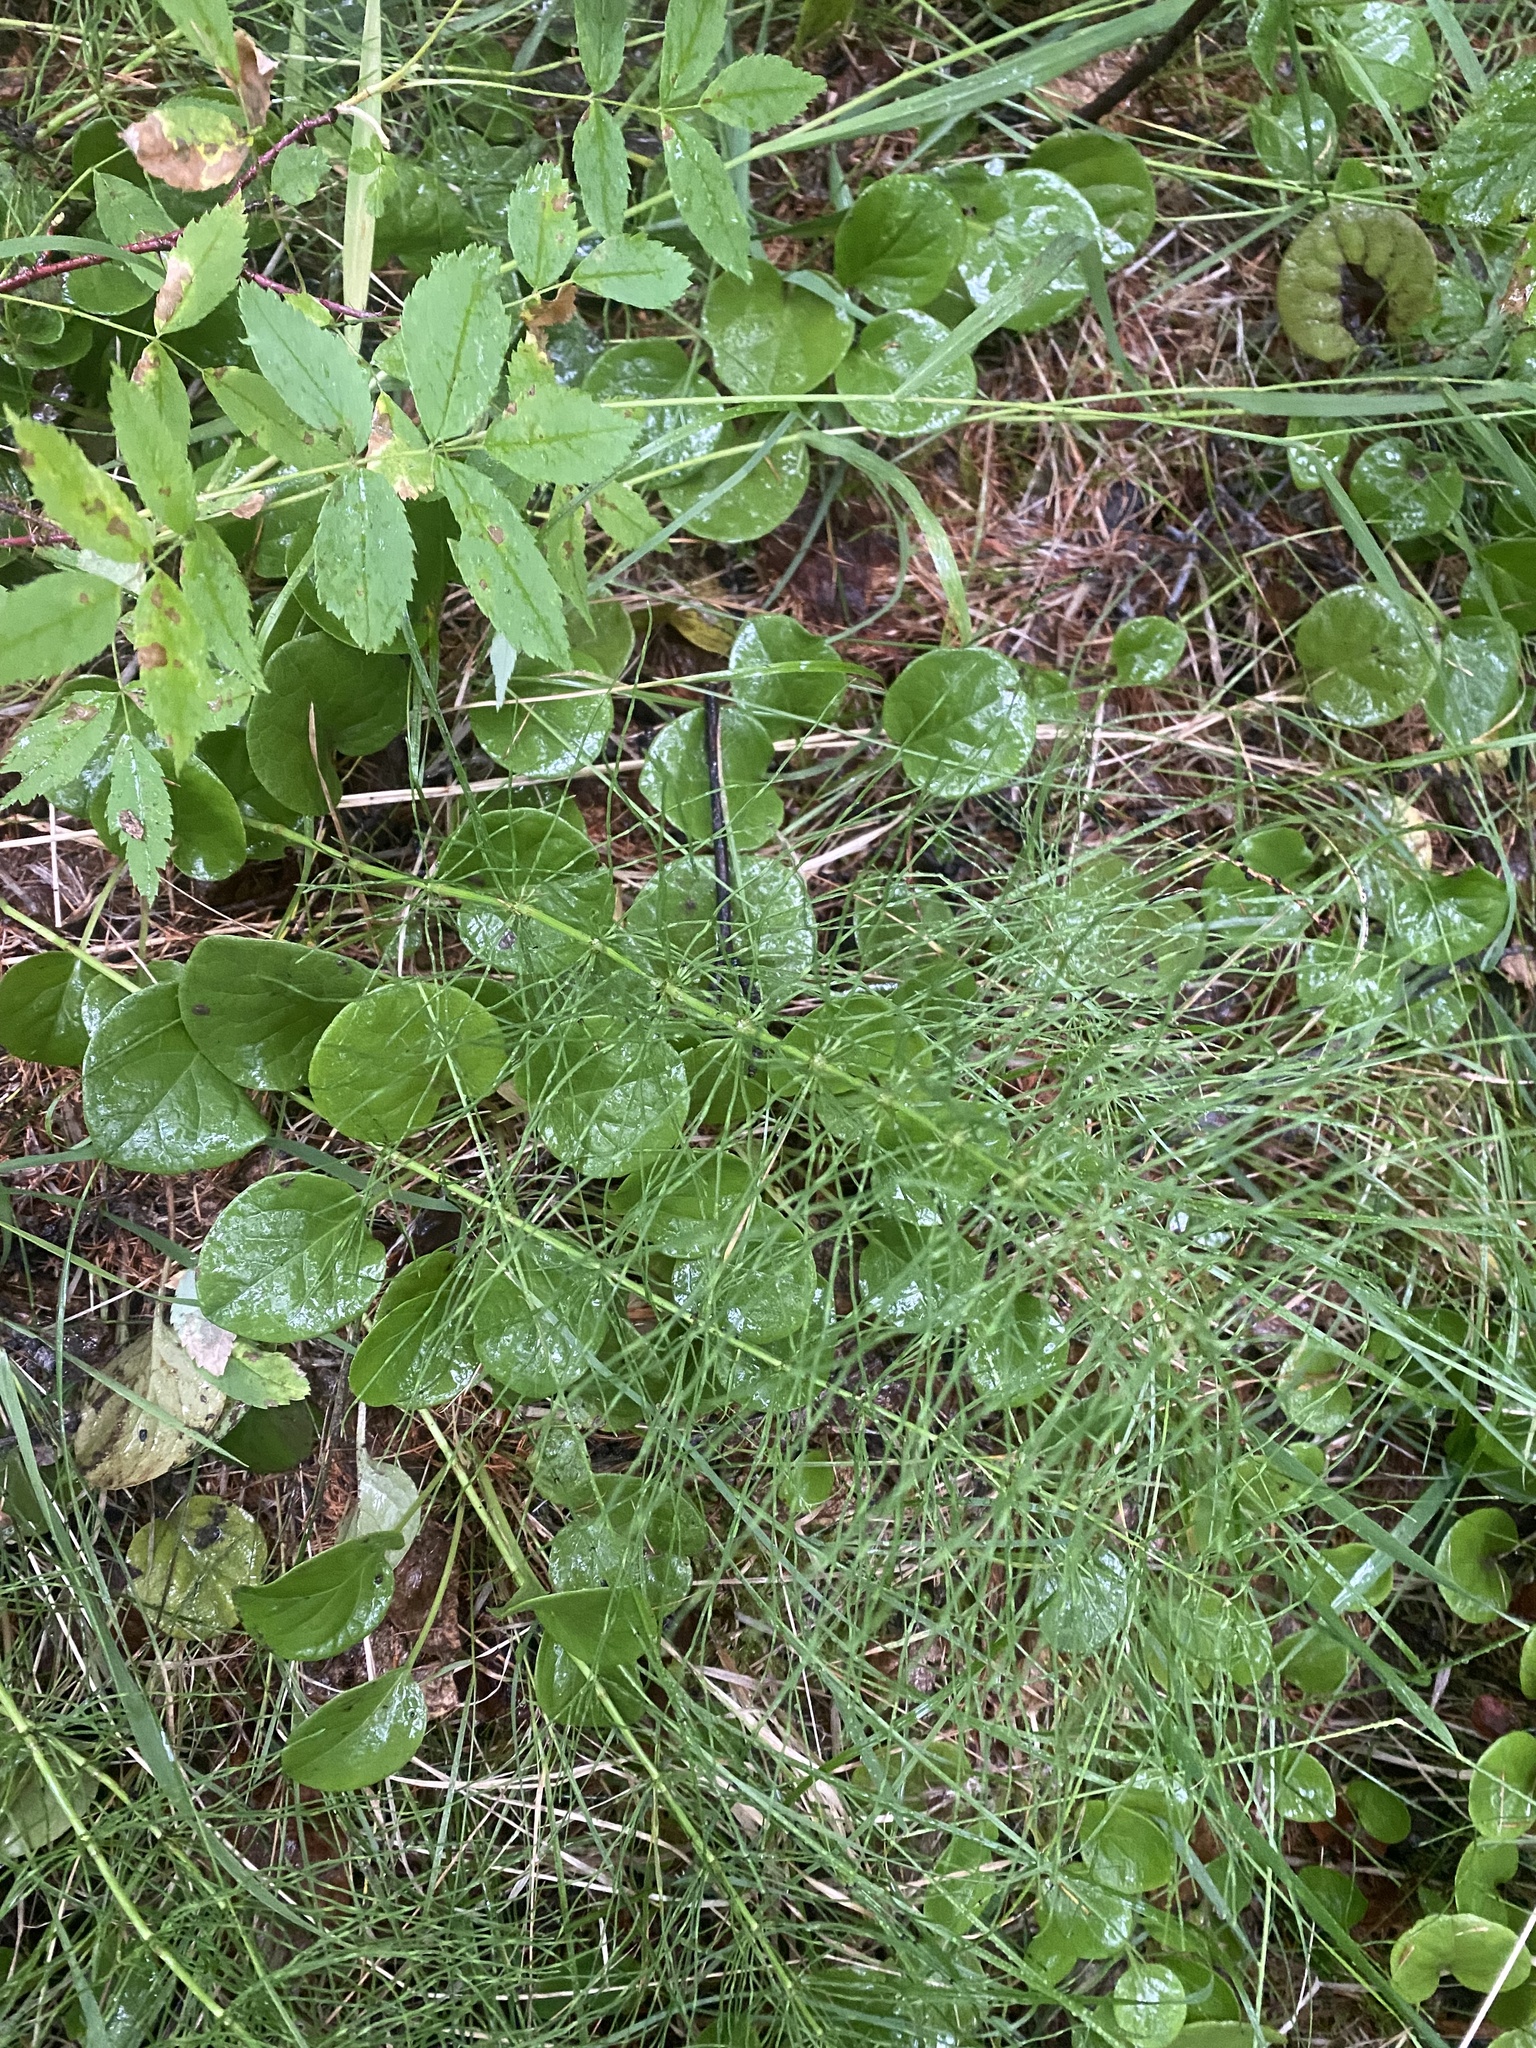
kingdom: Plantae
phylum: Tracheophyta
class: Polypodiopsida
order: Equisetales
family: Equisetaceae
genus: Equisetum
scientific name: Equisetum pratense
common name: Meadow horsetail
